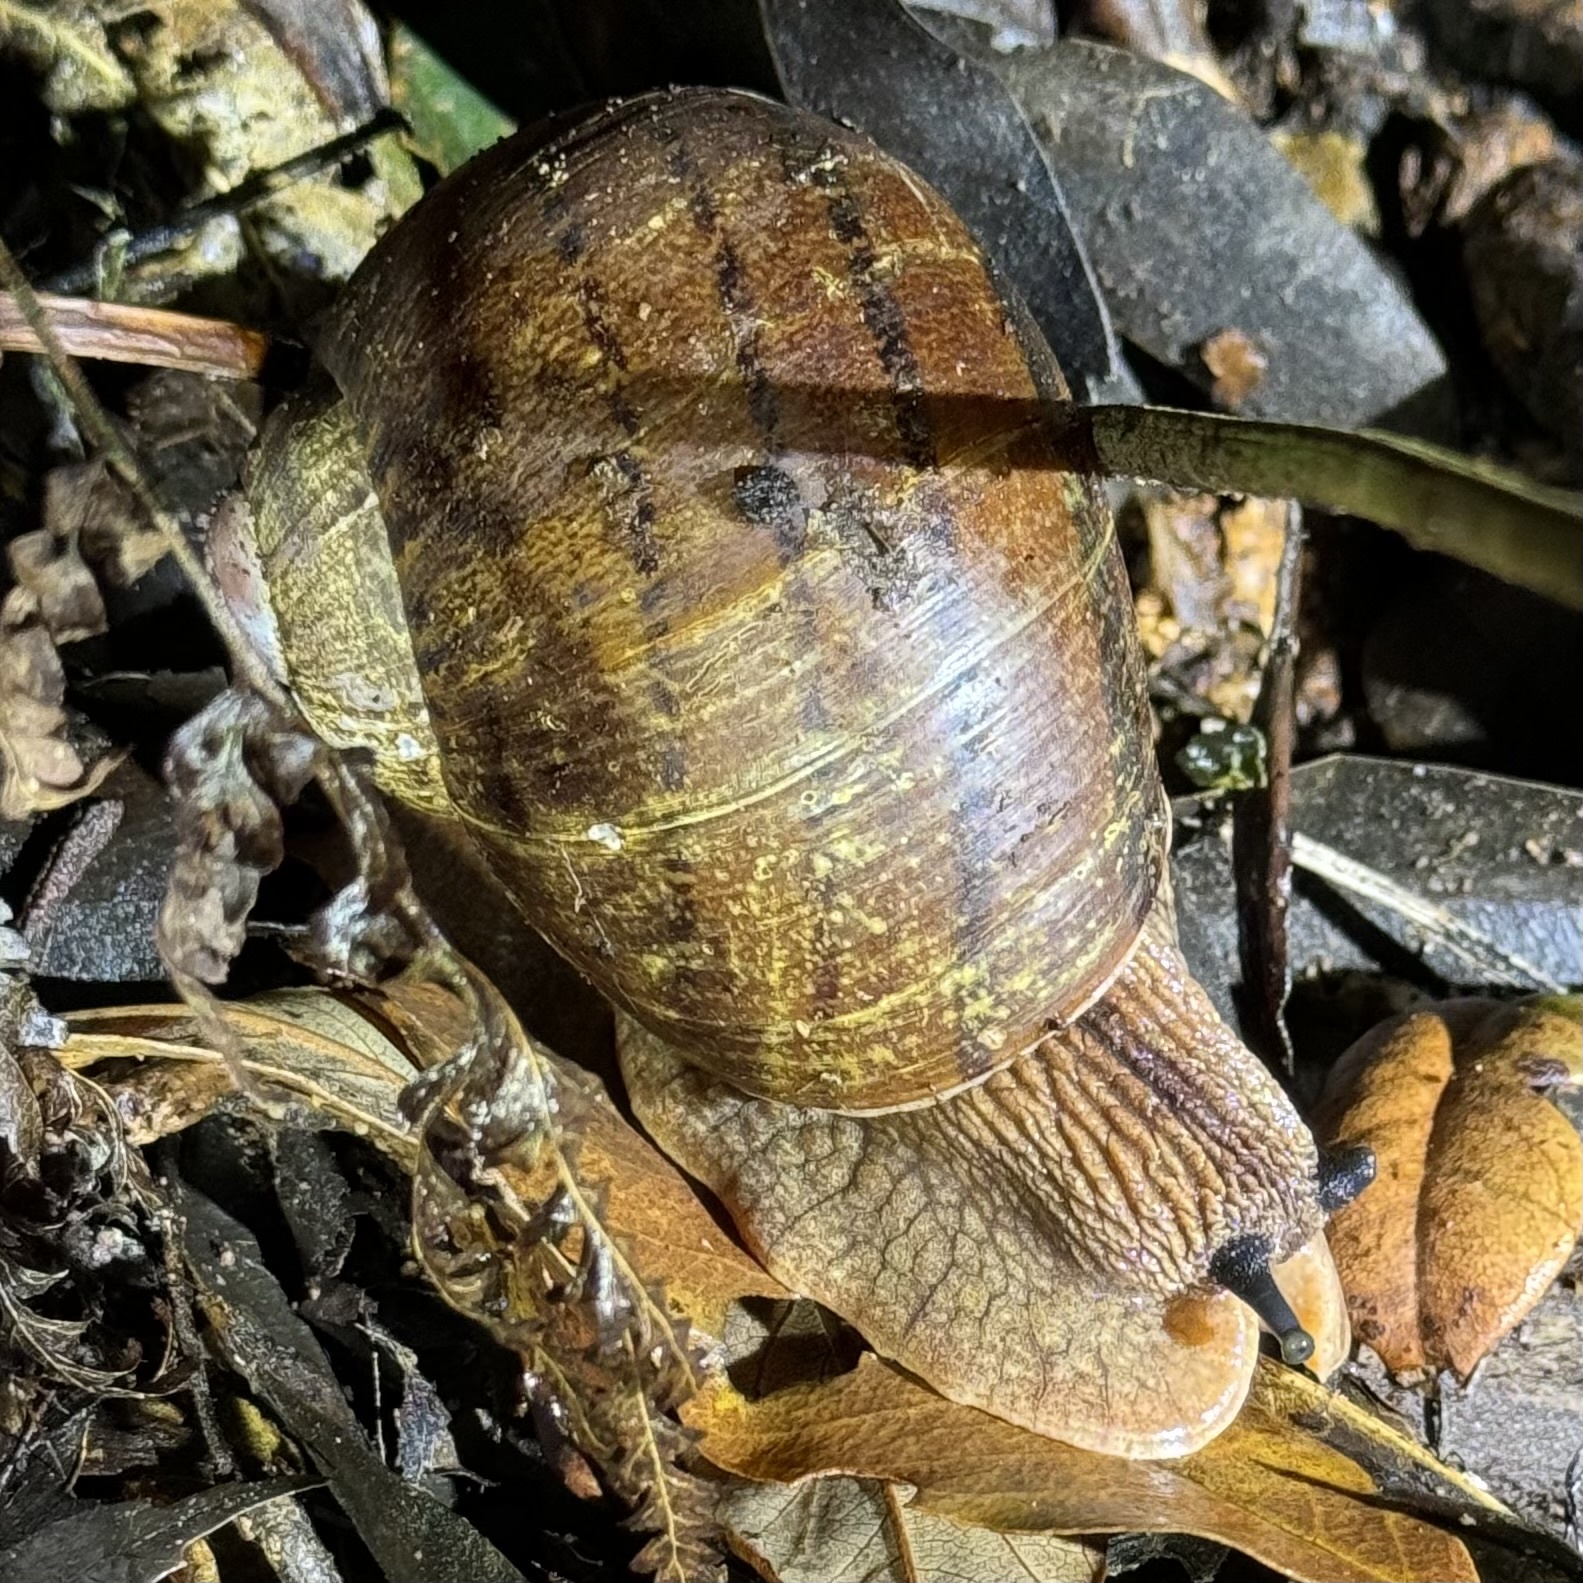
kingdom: Animalia
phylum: Mollusca
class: Gastropoda
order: Stylommatophora
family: Caryodidae
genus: Hedleyella
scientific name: Hedleyella falconeri
